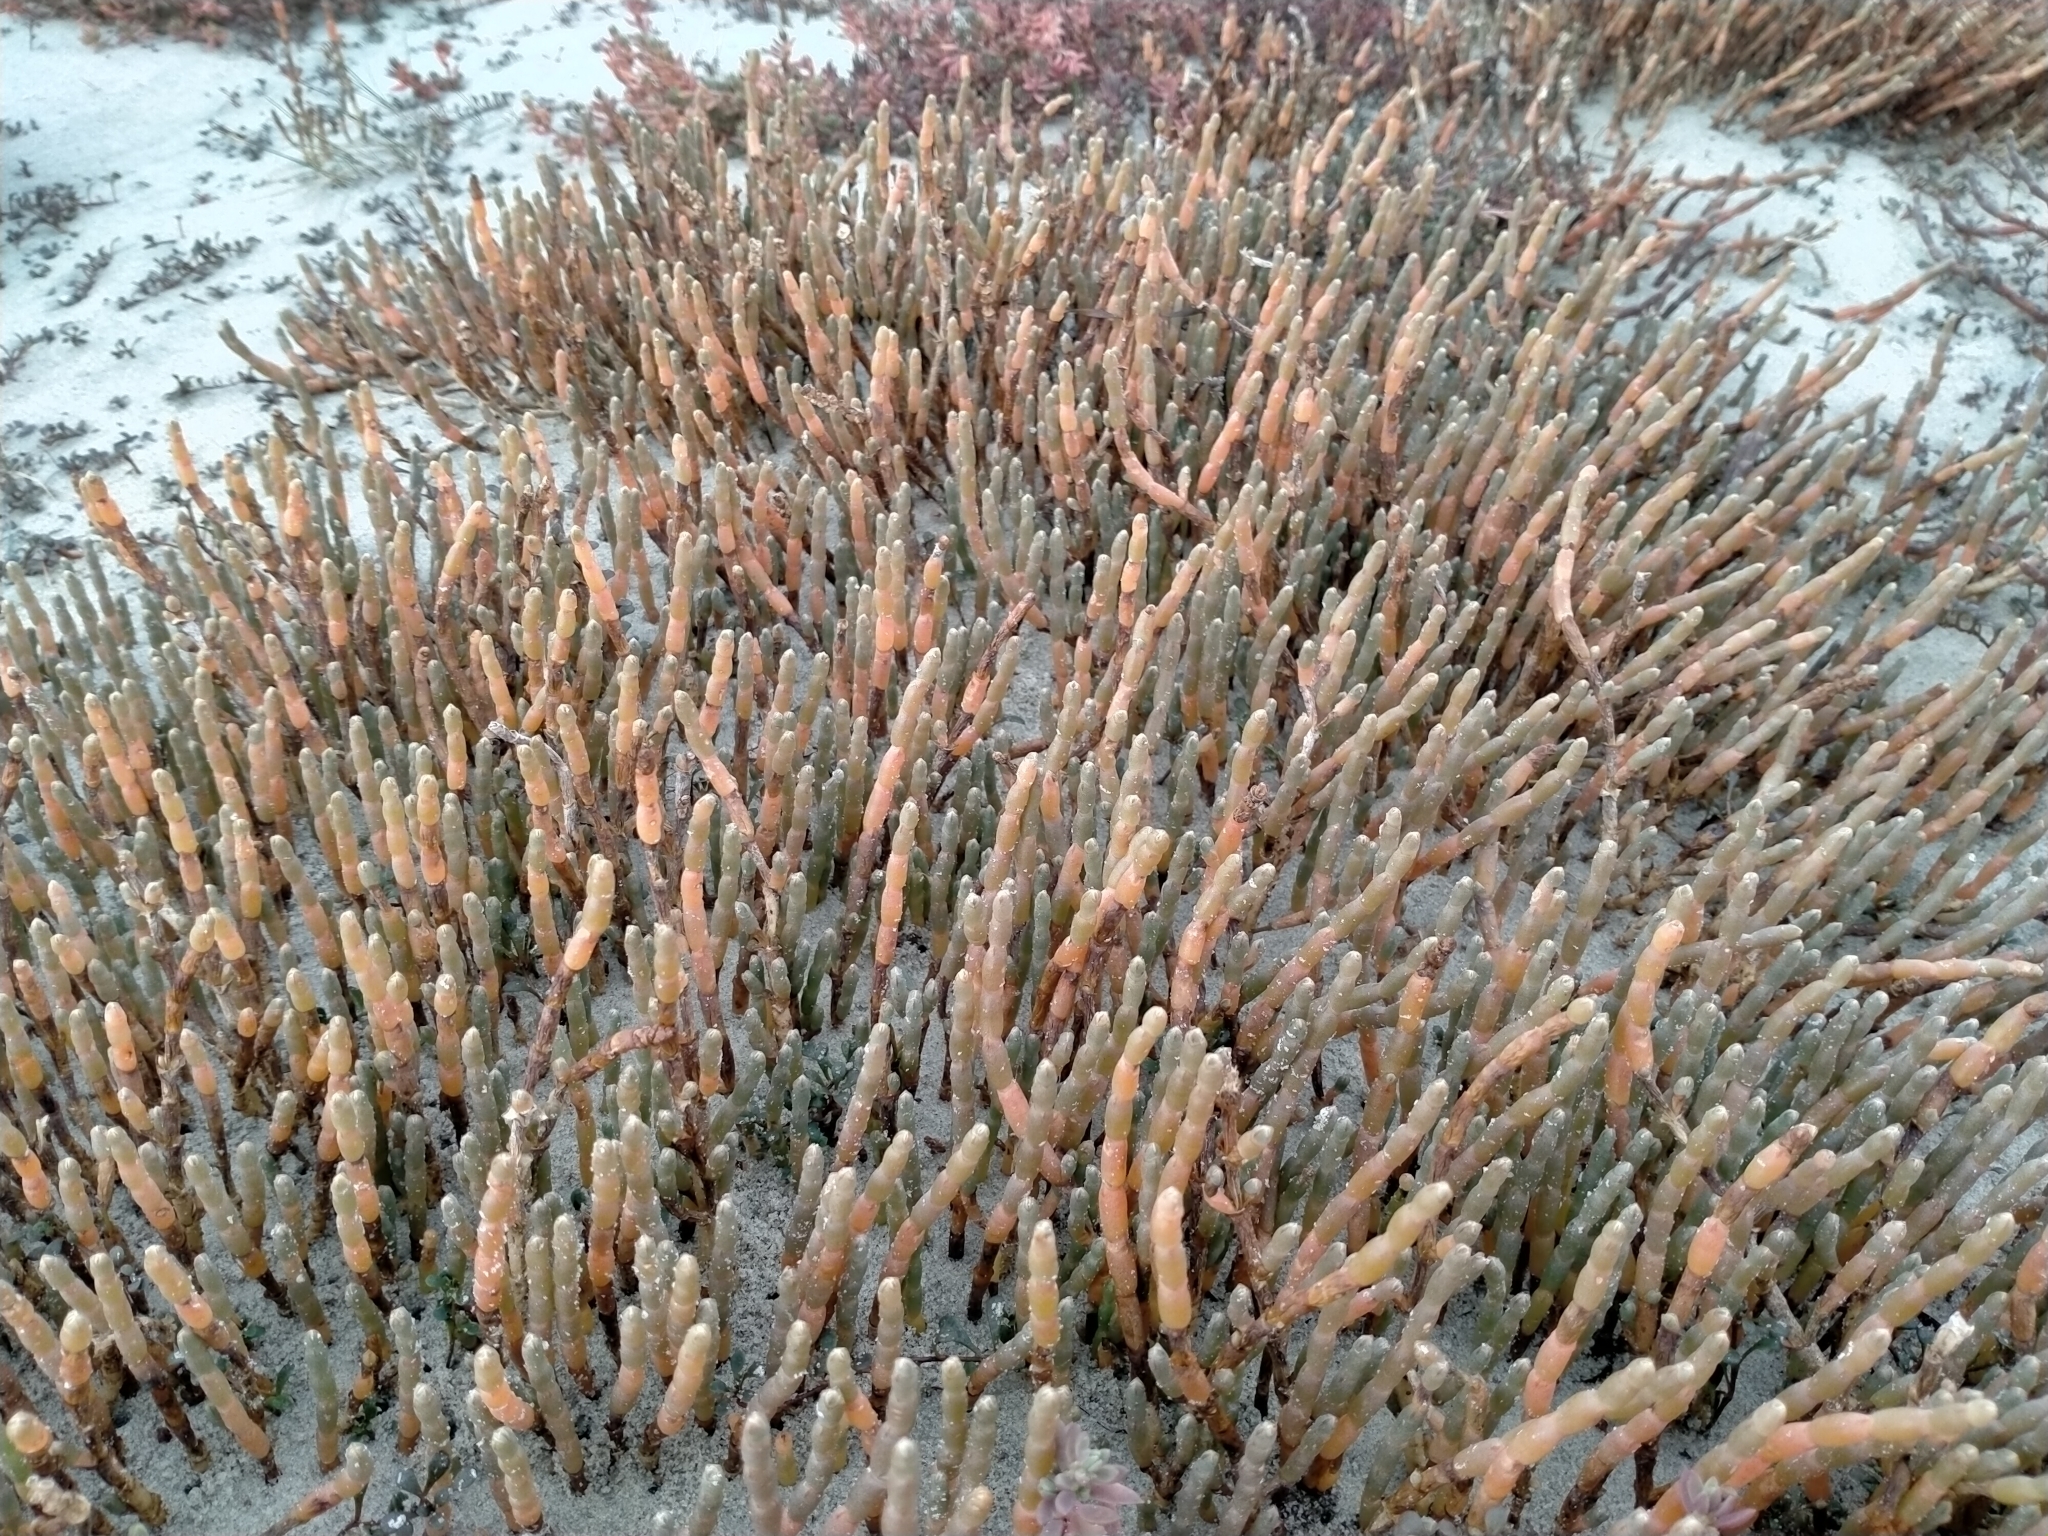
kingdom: Plantae
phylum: Tracheophyta
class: Magnoliopsida
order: Caryophyllales
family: Amaranthaceae
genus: Salicornia
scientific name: Salicornia quinqueflora
